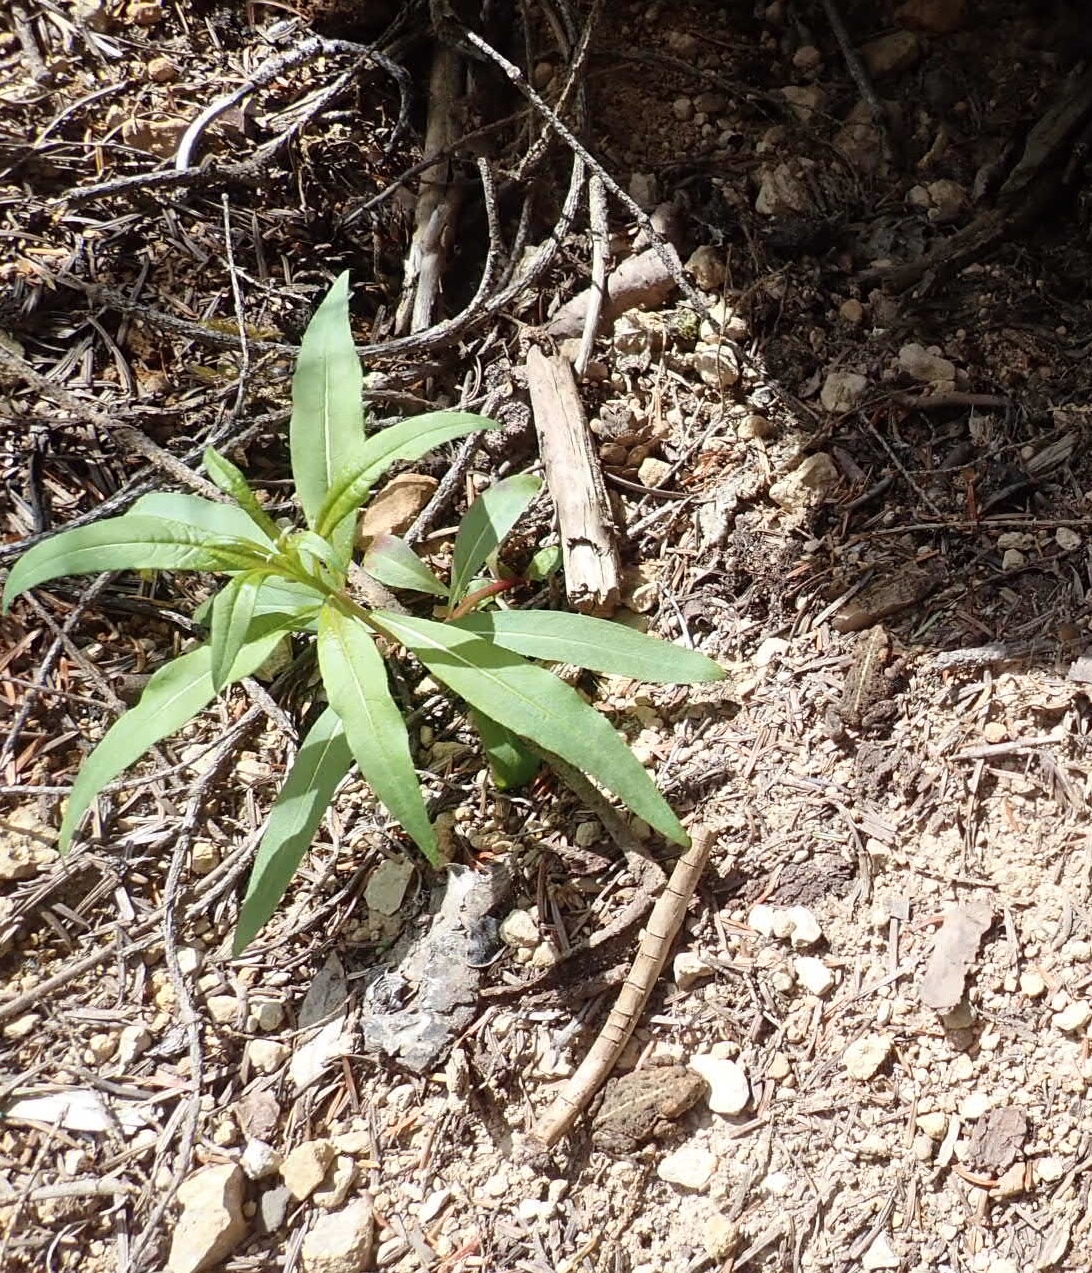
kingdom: Animalia
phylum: Chordata
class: Amphibia
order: Anura
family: Bufonidae
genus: Anaxyrus
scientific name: Anaxyrus boreas
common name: Western toad
